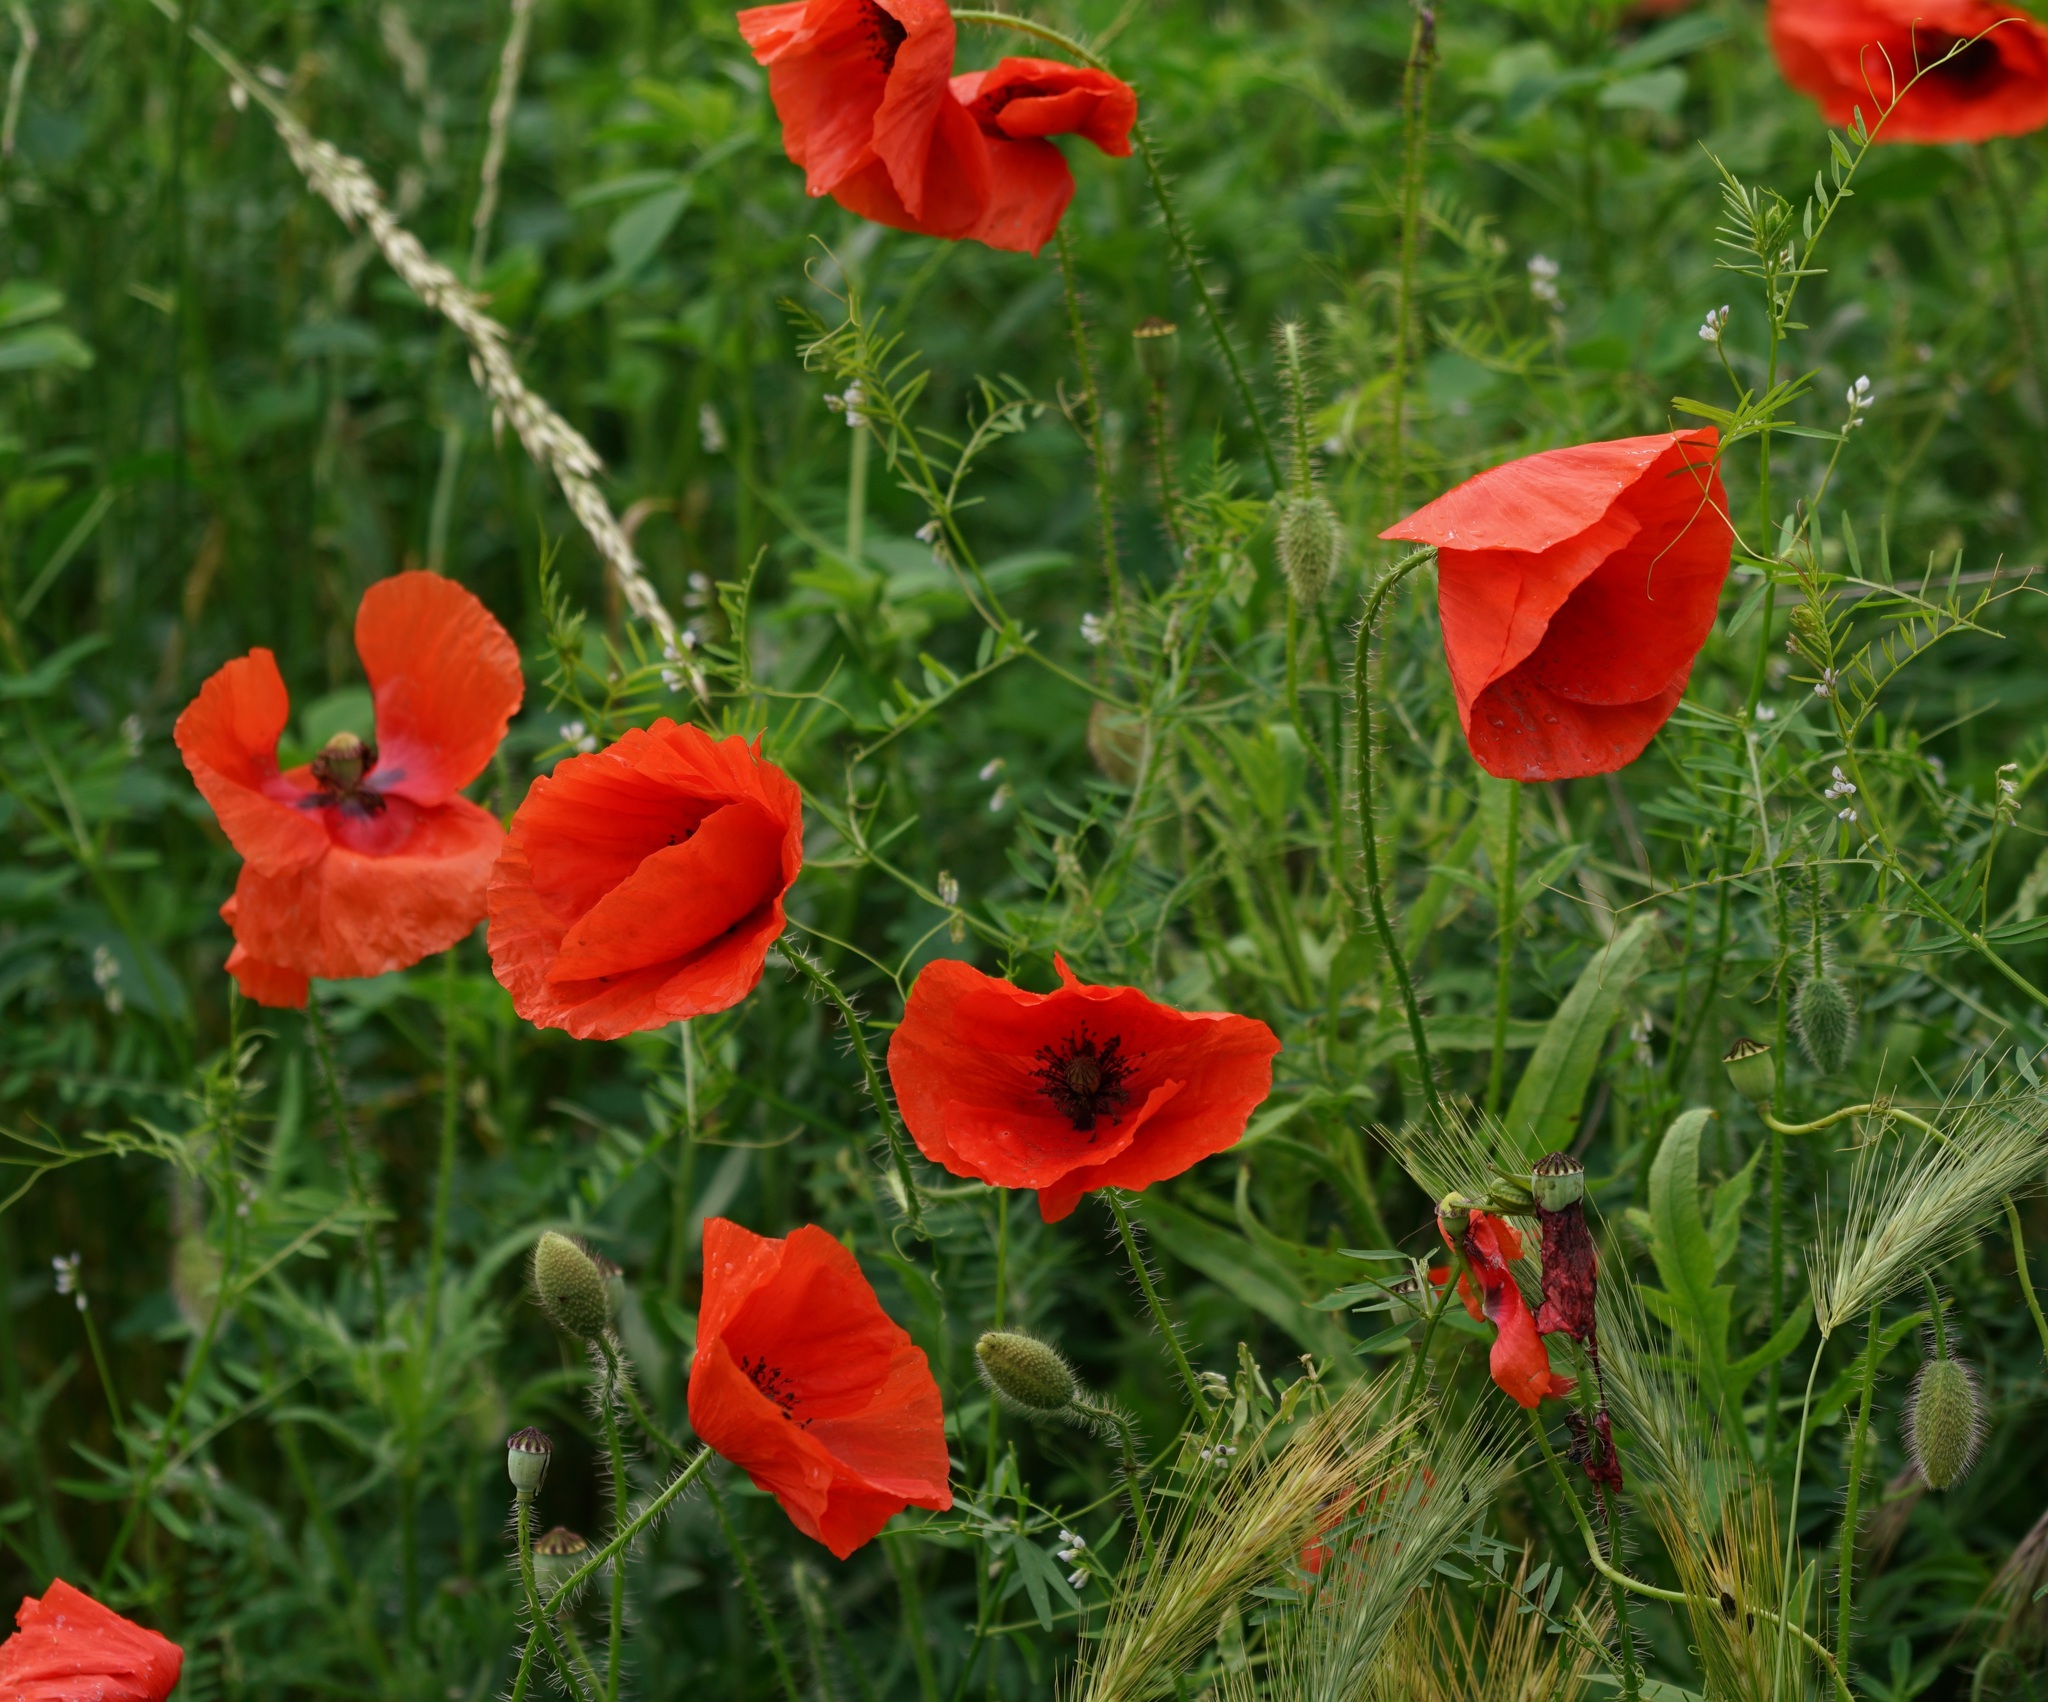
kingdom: Plantae
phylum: Tracheophyta
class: Magnoliopsida
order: Ranunculales
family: Papaveraceae
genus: Papaver
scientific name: Papaver rhoeas
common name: Corn poppy
